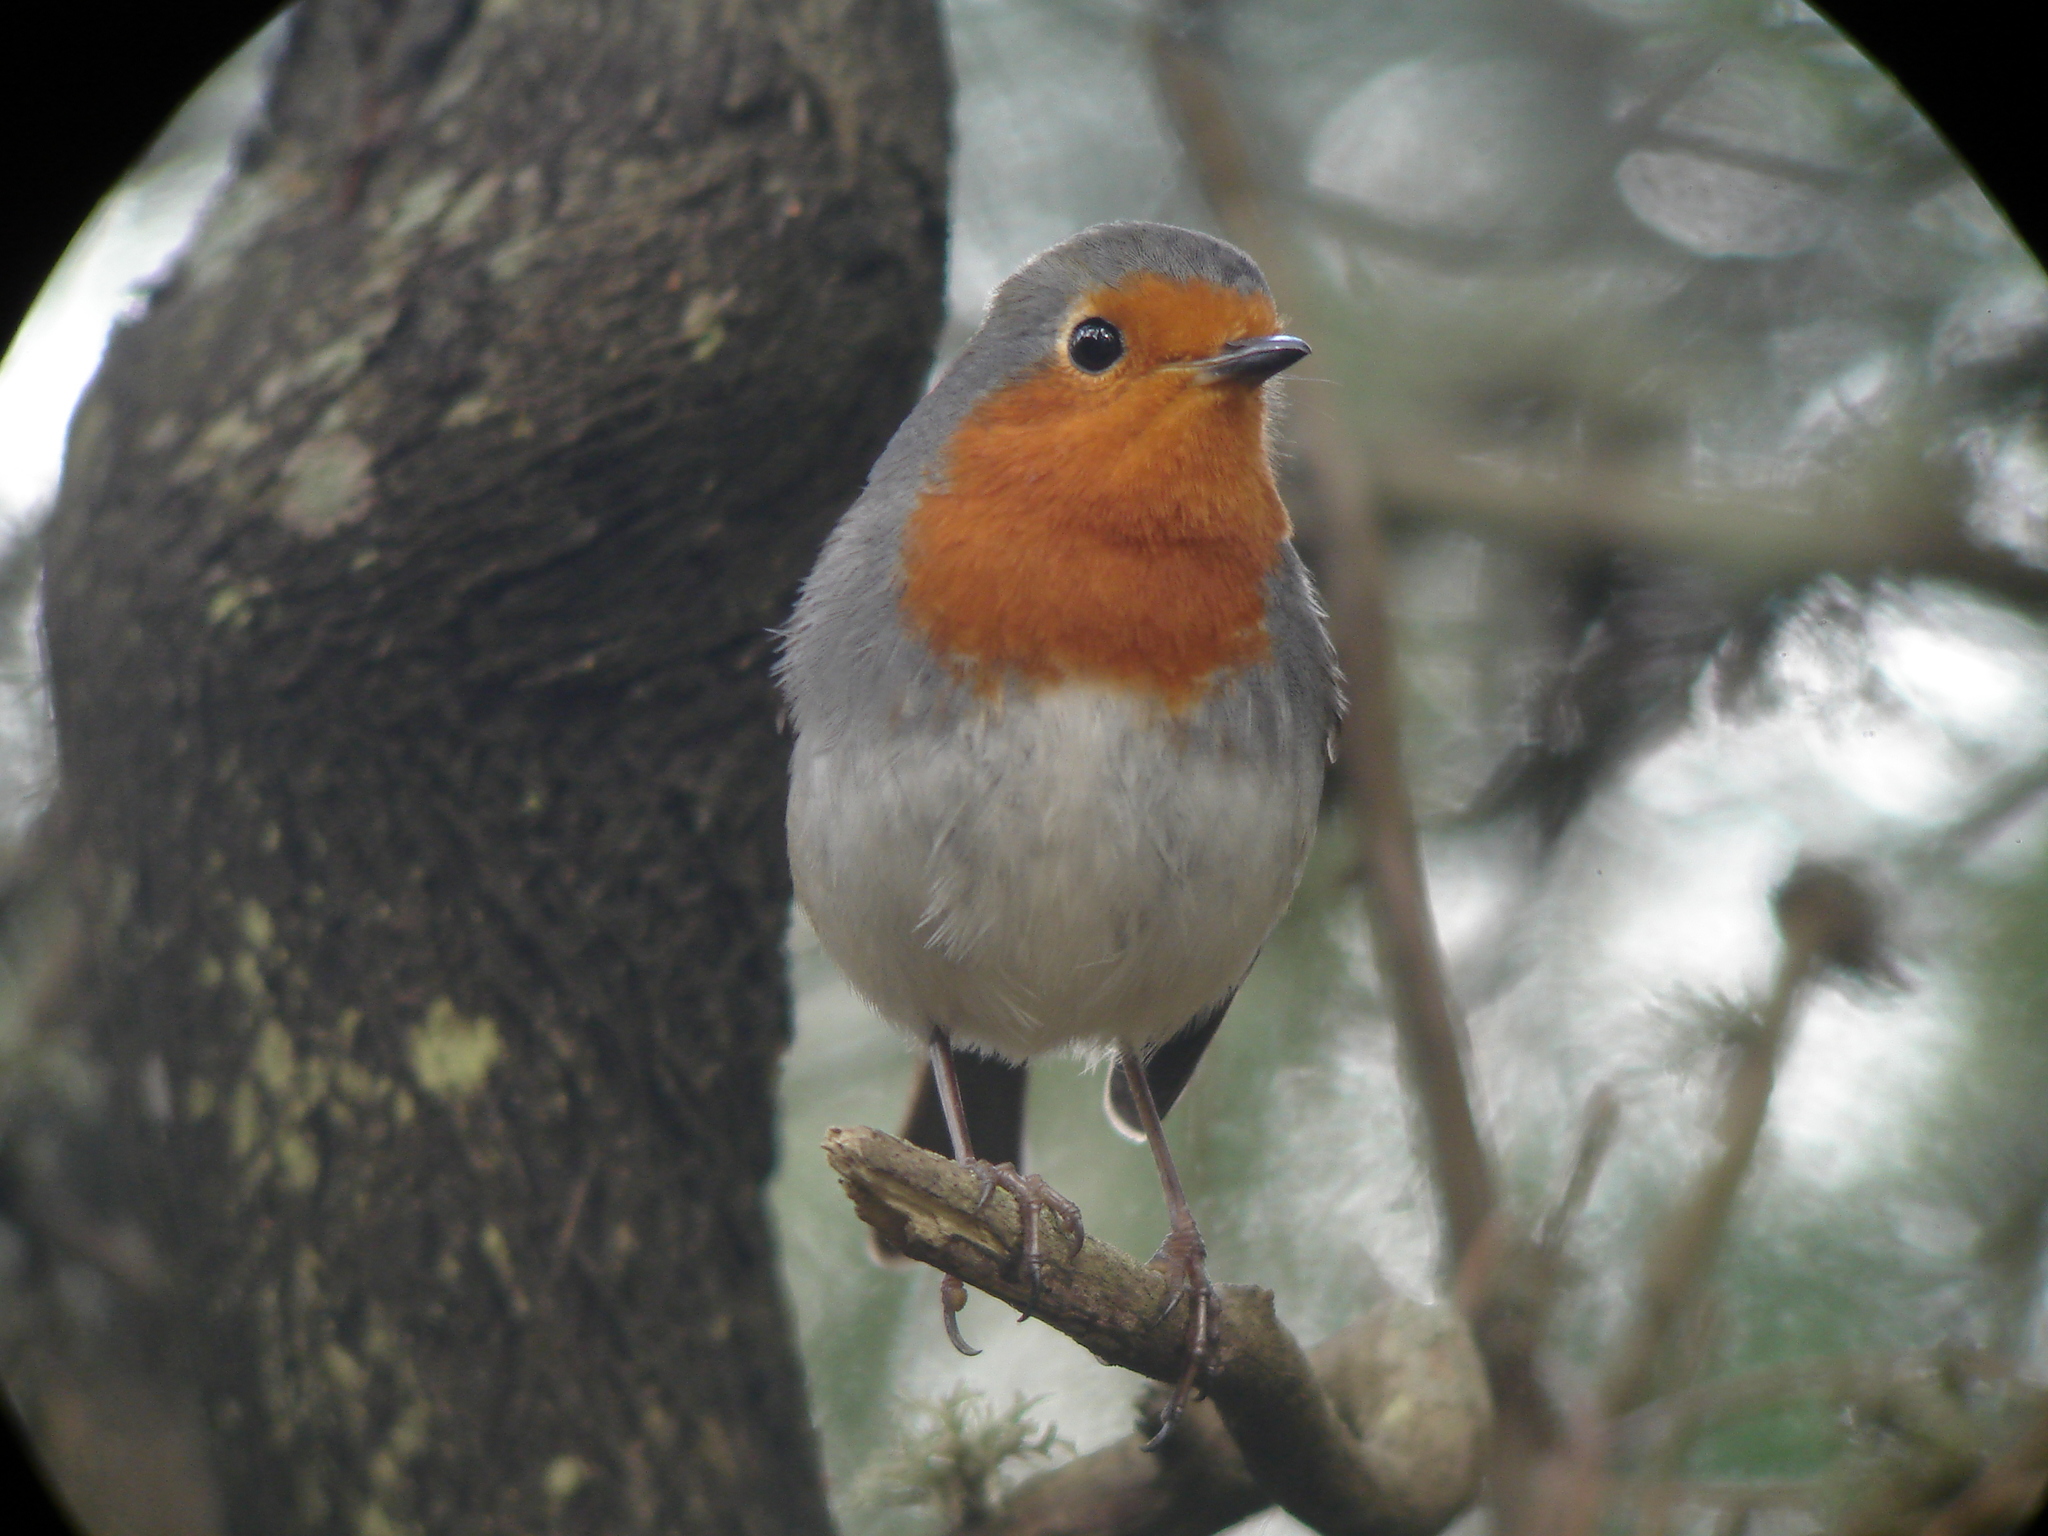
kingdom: Animalia
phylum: Chordata
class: Aves
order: Passeriformes
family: Muscicapidae
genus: Erithacus
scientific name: Erithacus rubecula
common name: European robin
